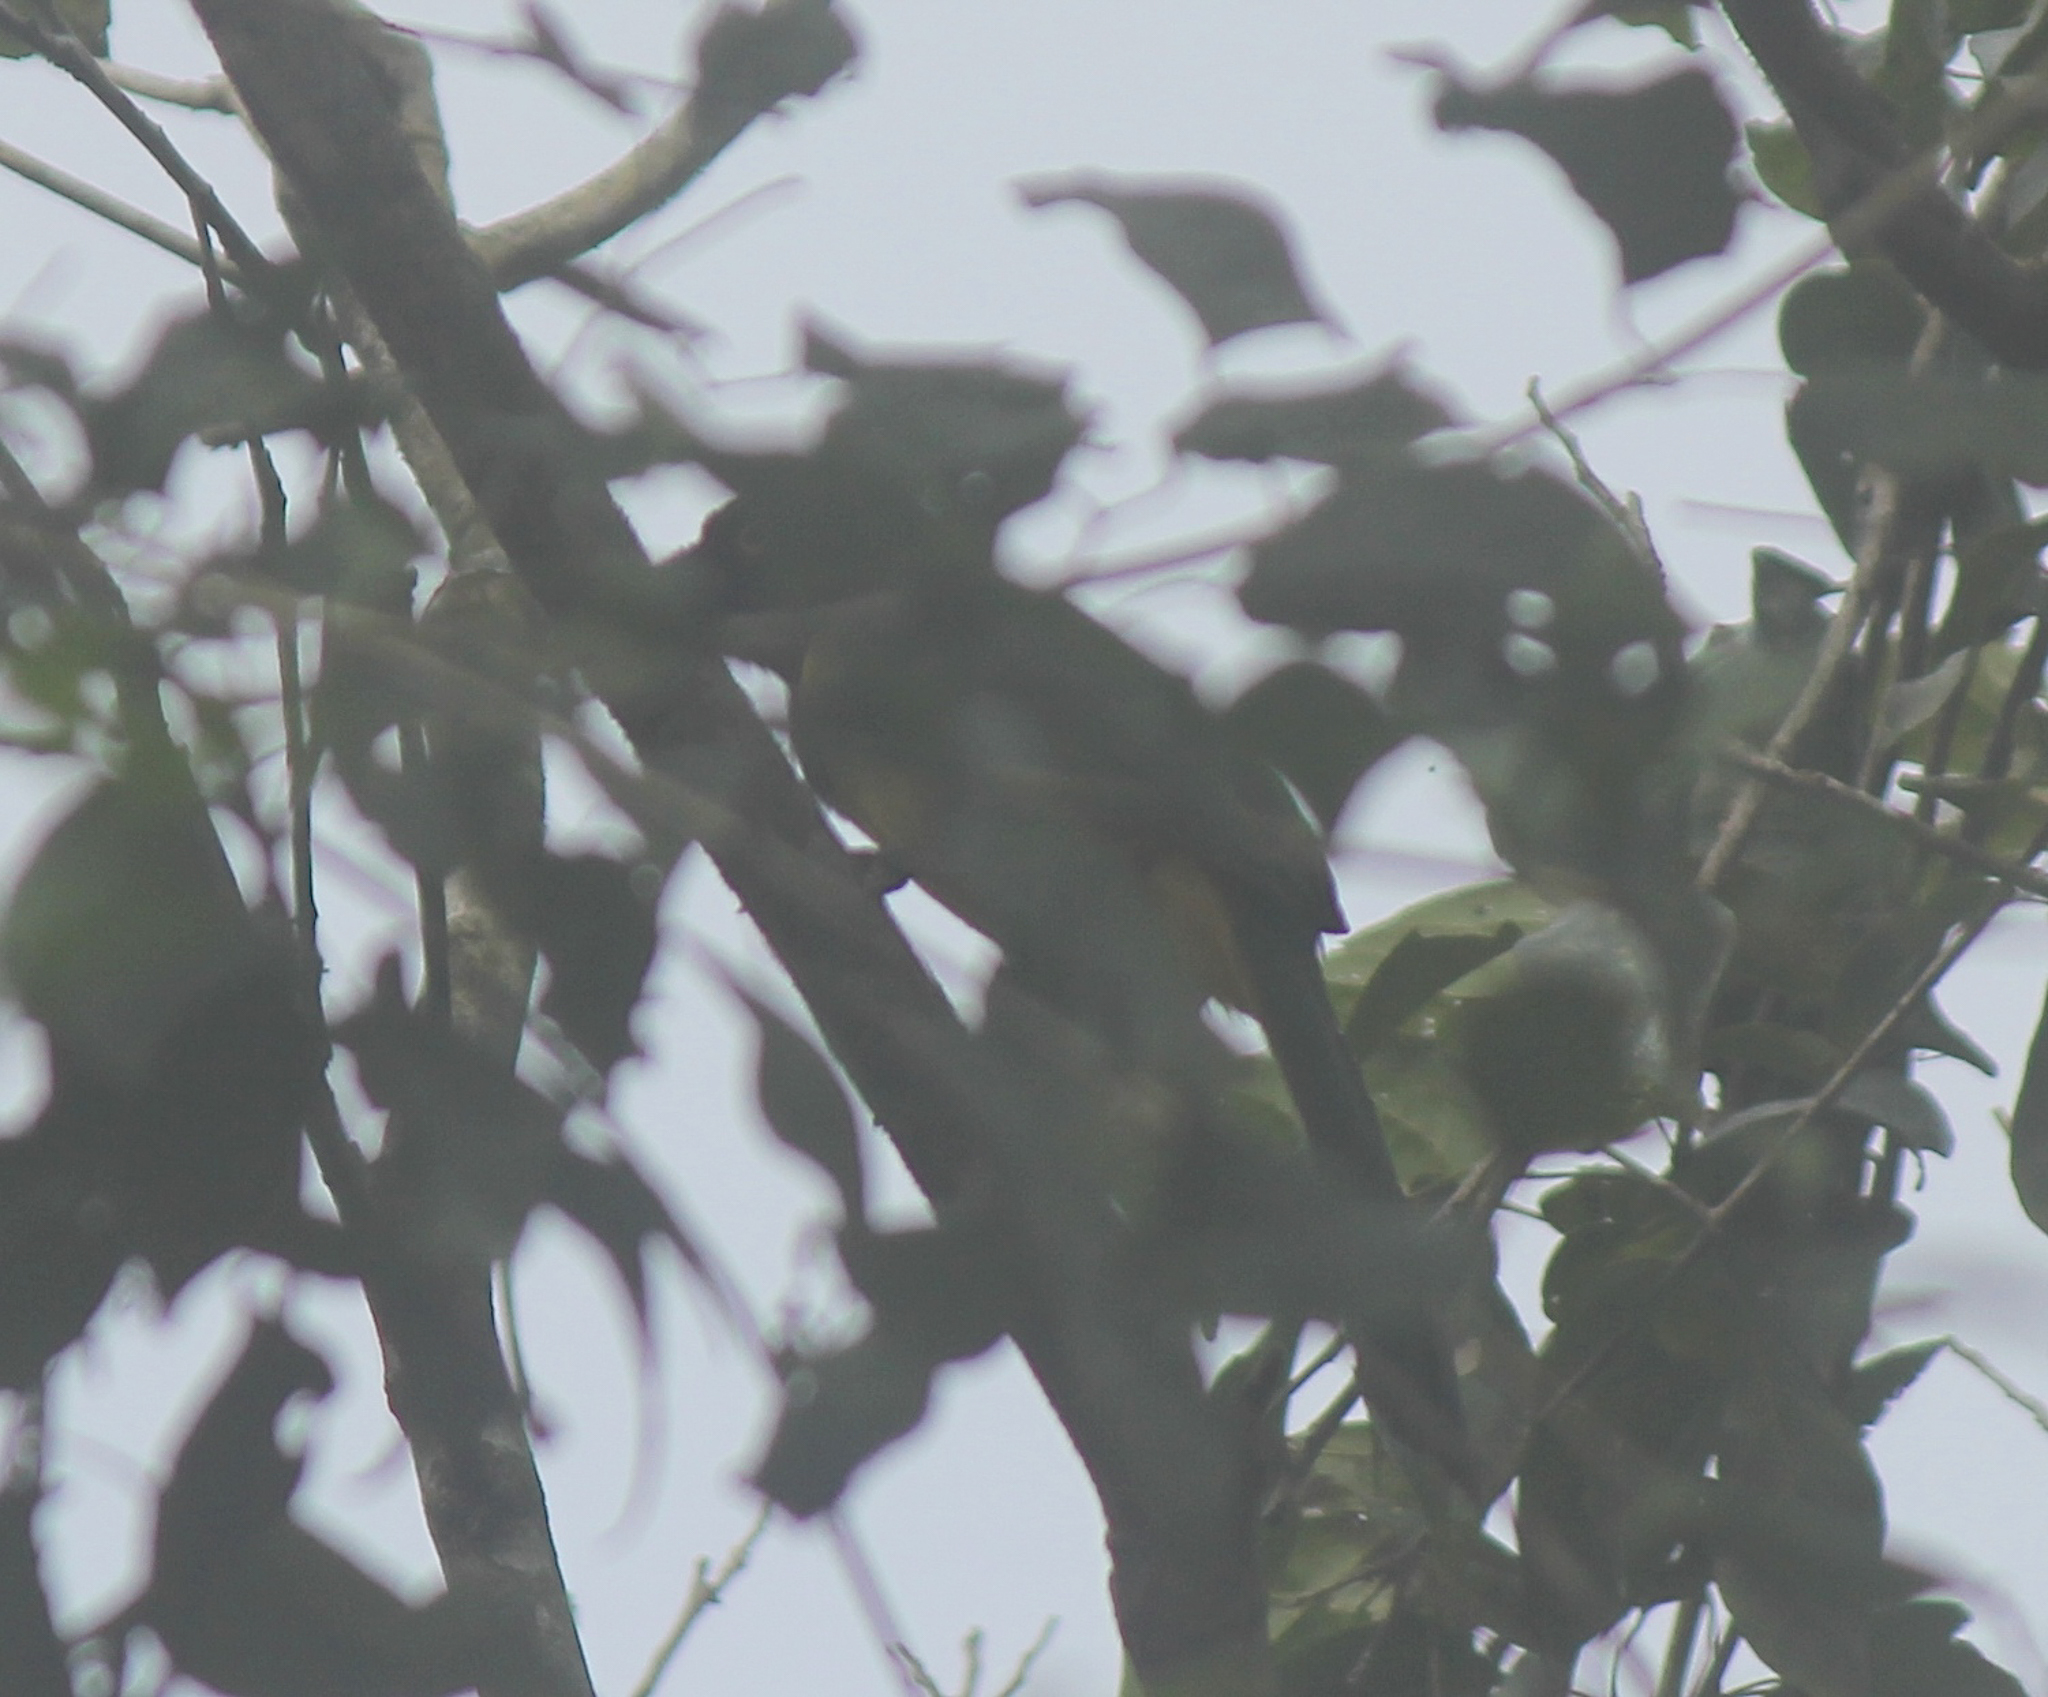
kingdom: Animalia
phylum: Chordata
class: Aves
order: Passeriformes
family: Corvidae
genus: Cyanocorax
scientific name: Cyanocorax yncas
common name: Green jay
